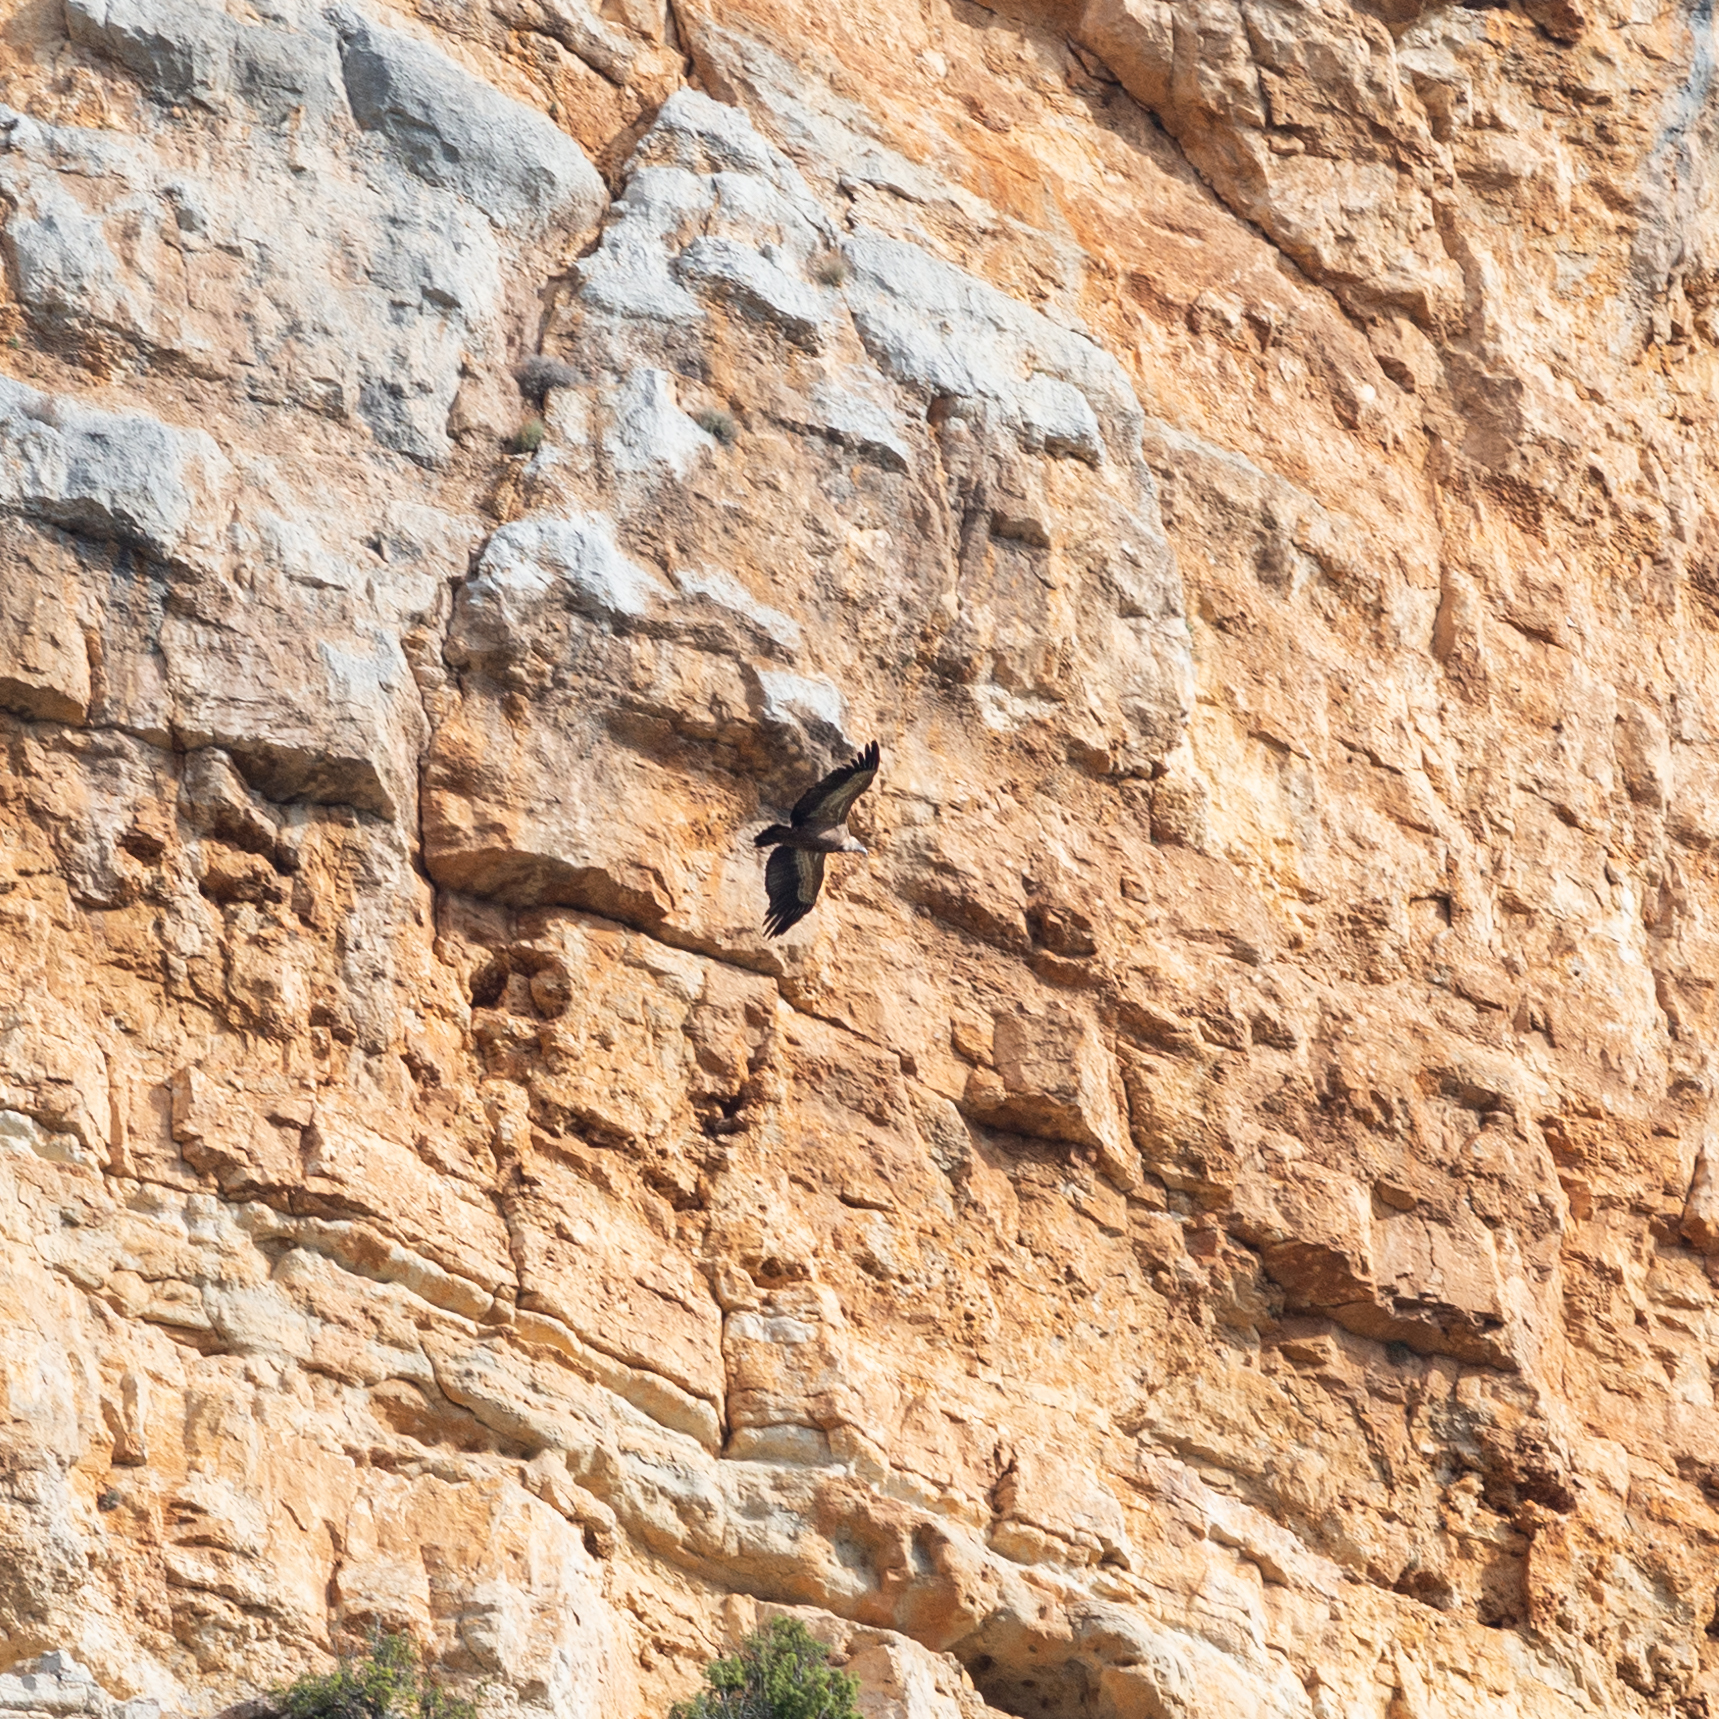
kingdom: Animalia
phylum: Chordata
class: Aves
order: Accipitriformes
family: Accipitridae
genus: Gyps
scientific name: Gyps fulvus
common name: Griffon vulture
